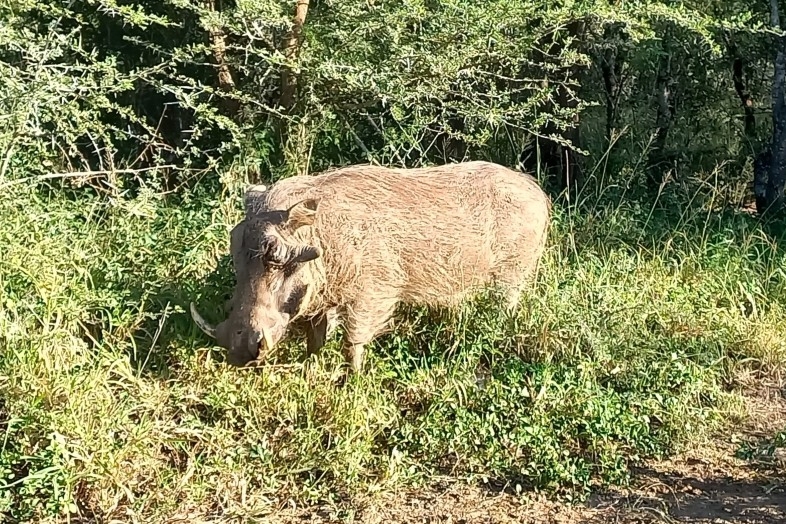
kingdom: Animalia
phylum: Chordata
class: Mammalia
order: Artiodactyla
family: Suidae
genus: Phacochoerus
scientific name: Phacochoerus africanus
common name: Common warthog
